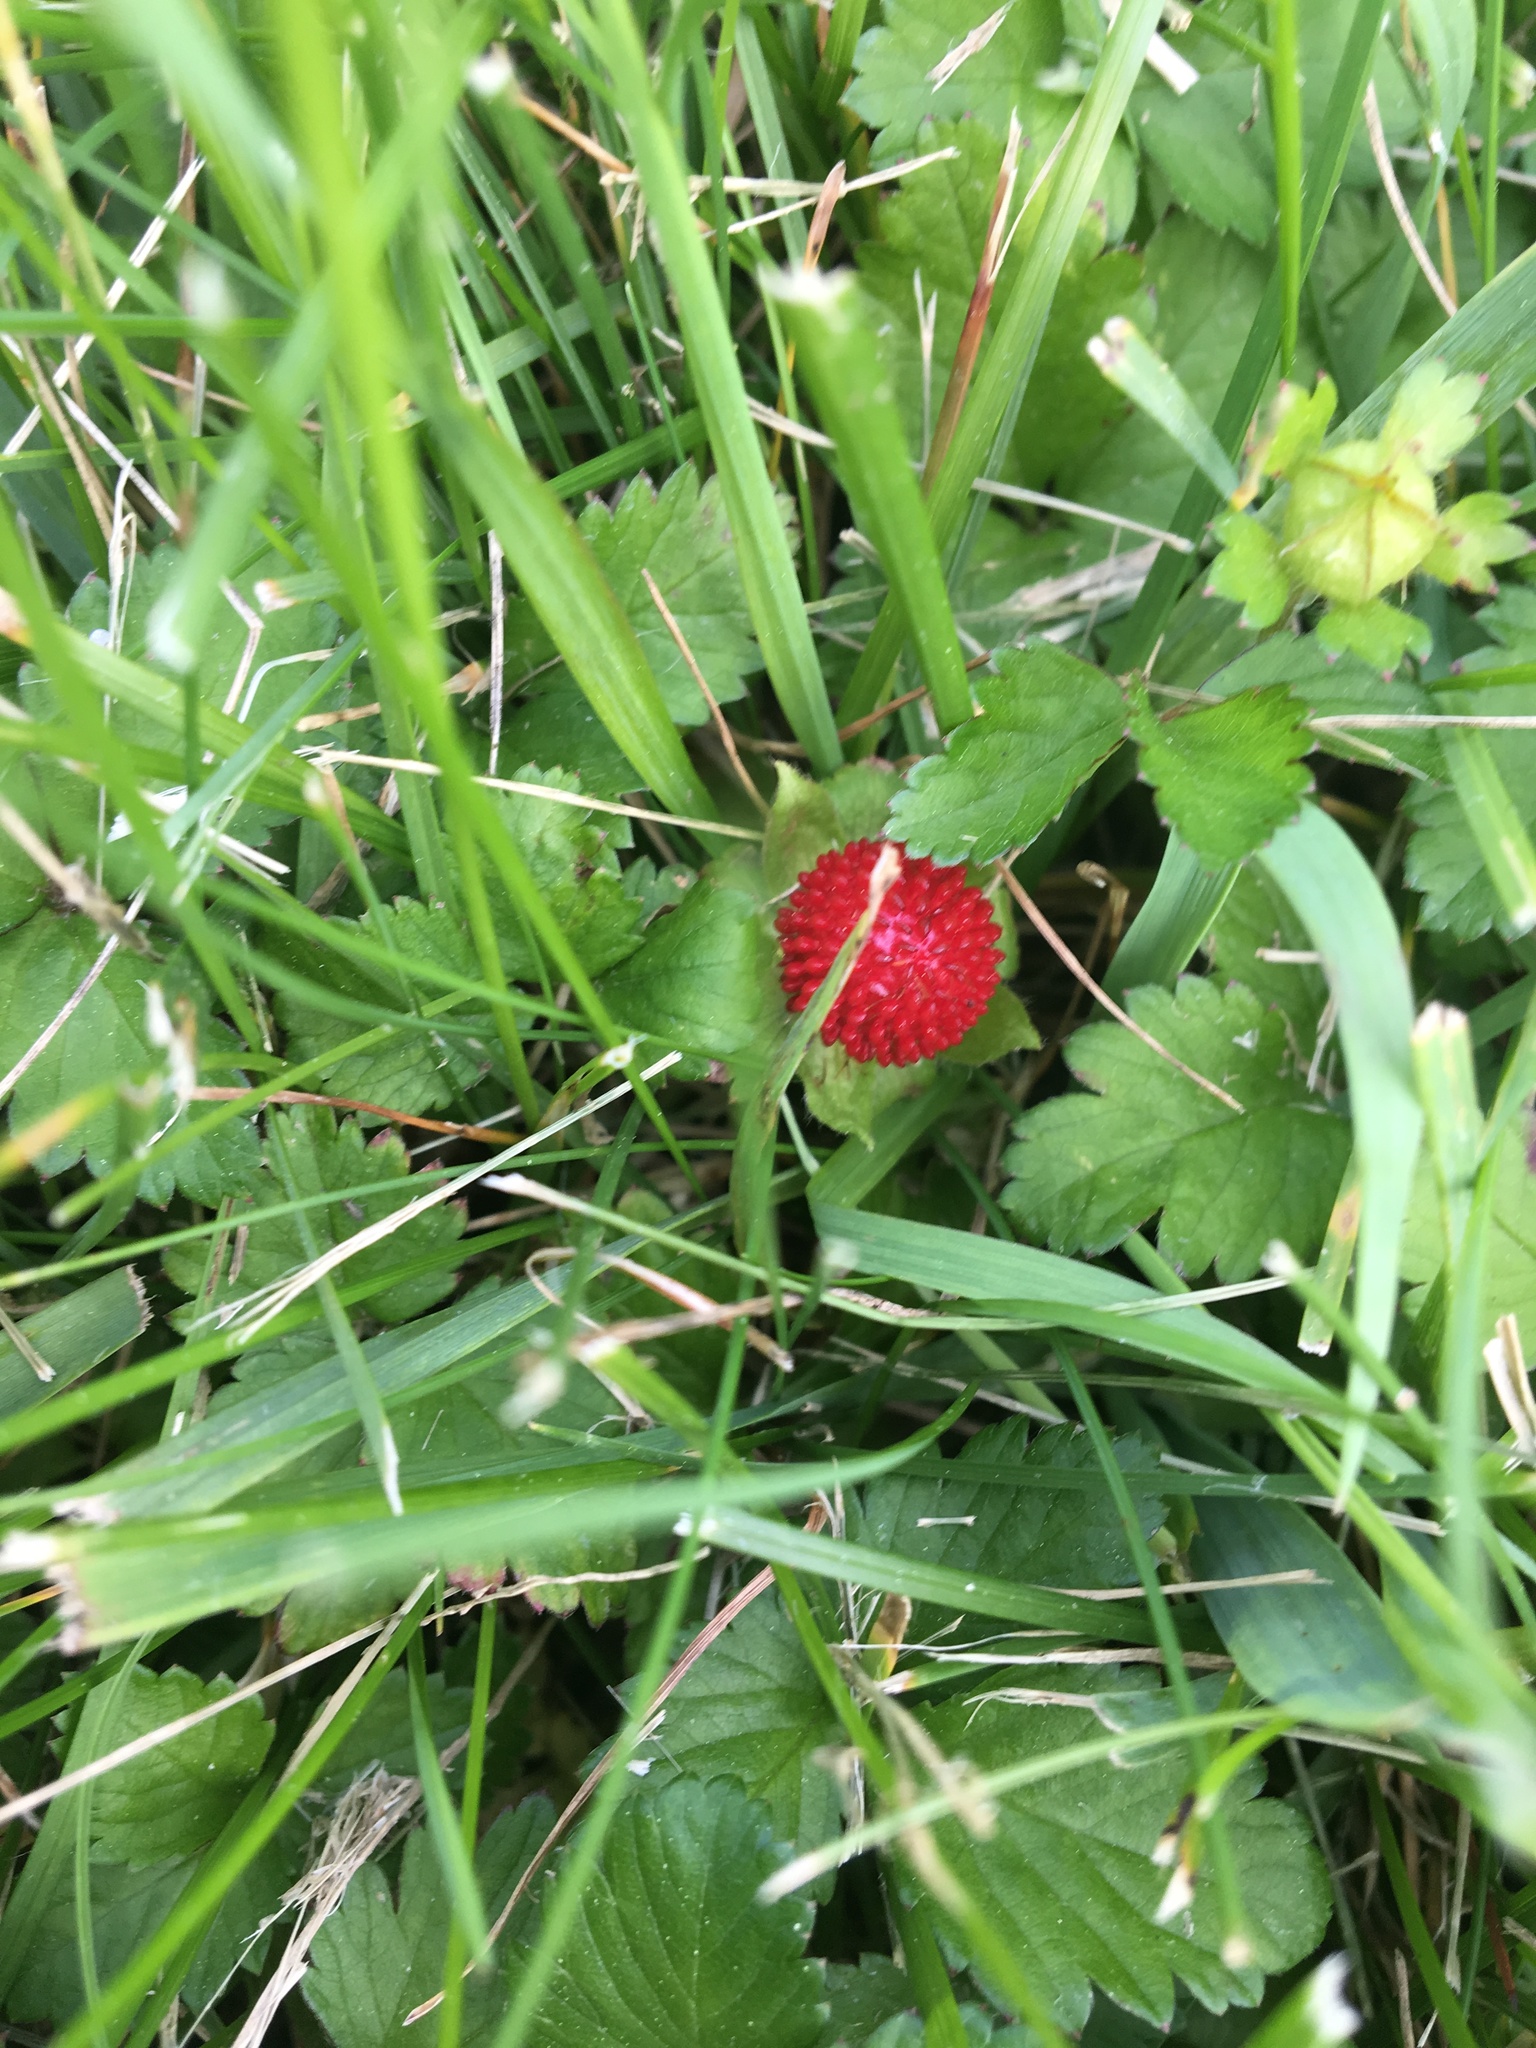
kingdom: Plantae
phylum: Tracheophyta
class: Magnoliopsida
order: Rosales
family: Rosaceae
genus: Potentilla
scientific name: Potentilla indica
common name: Yellow-flowered strawberry
